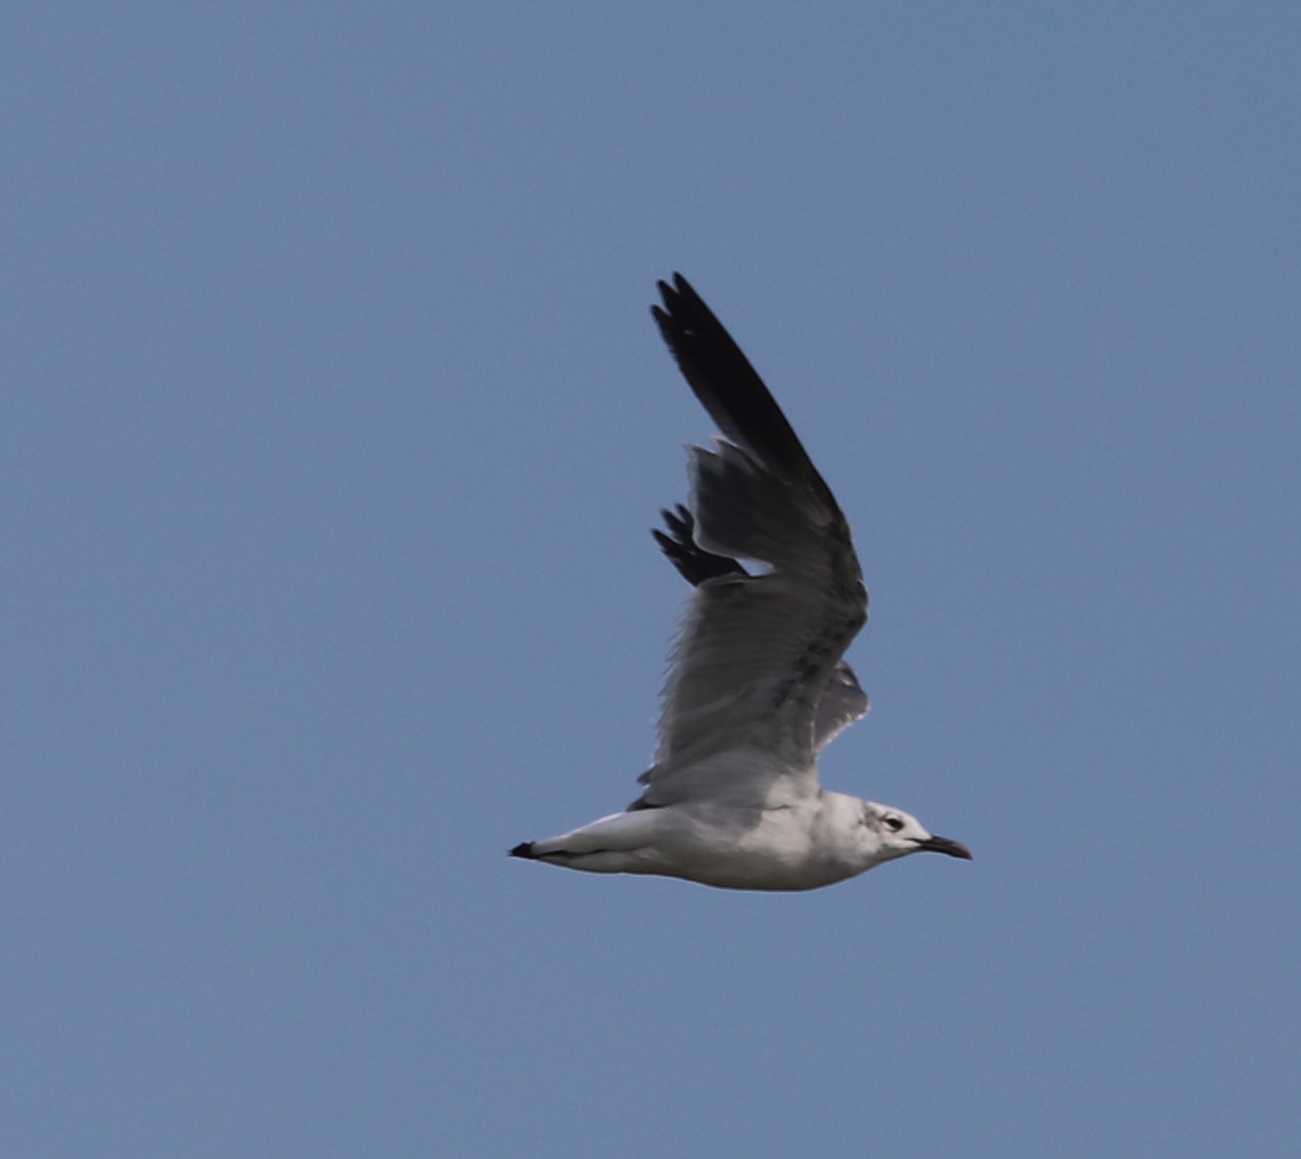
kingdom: Animalia
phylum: Chordata
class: Aves
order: Charadriiformes
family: Laridae
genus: Leucophaeus
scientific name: Leucophaeus atricilla
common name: Laughing gull
